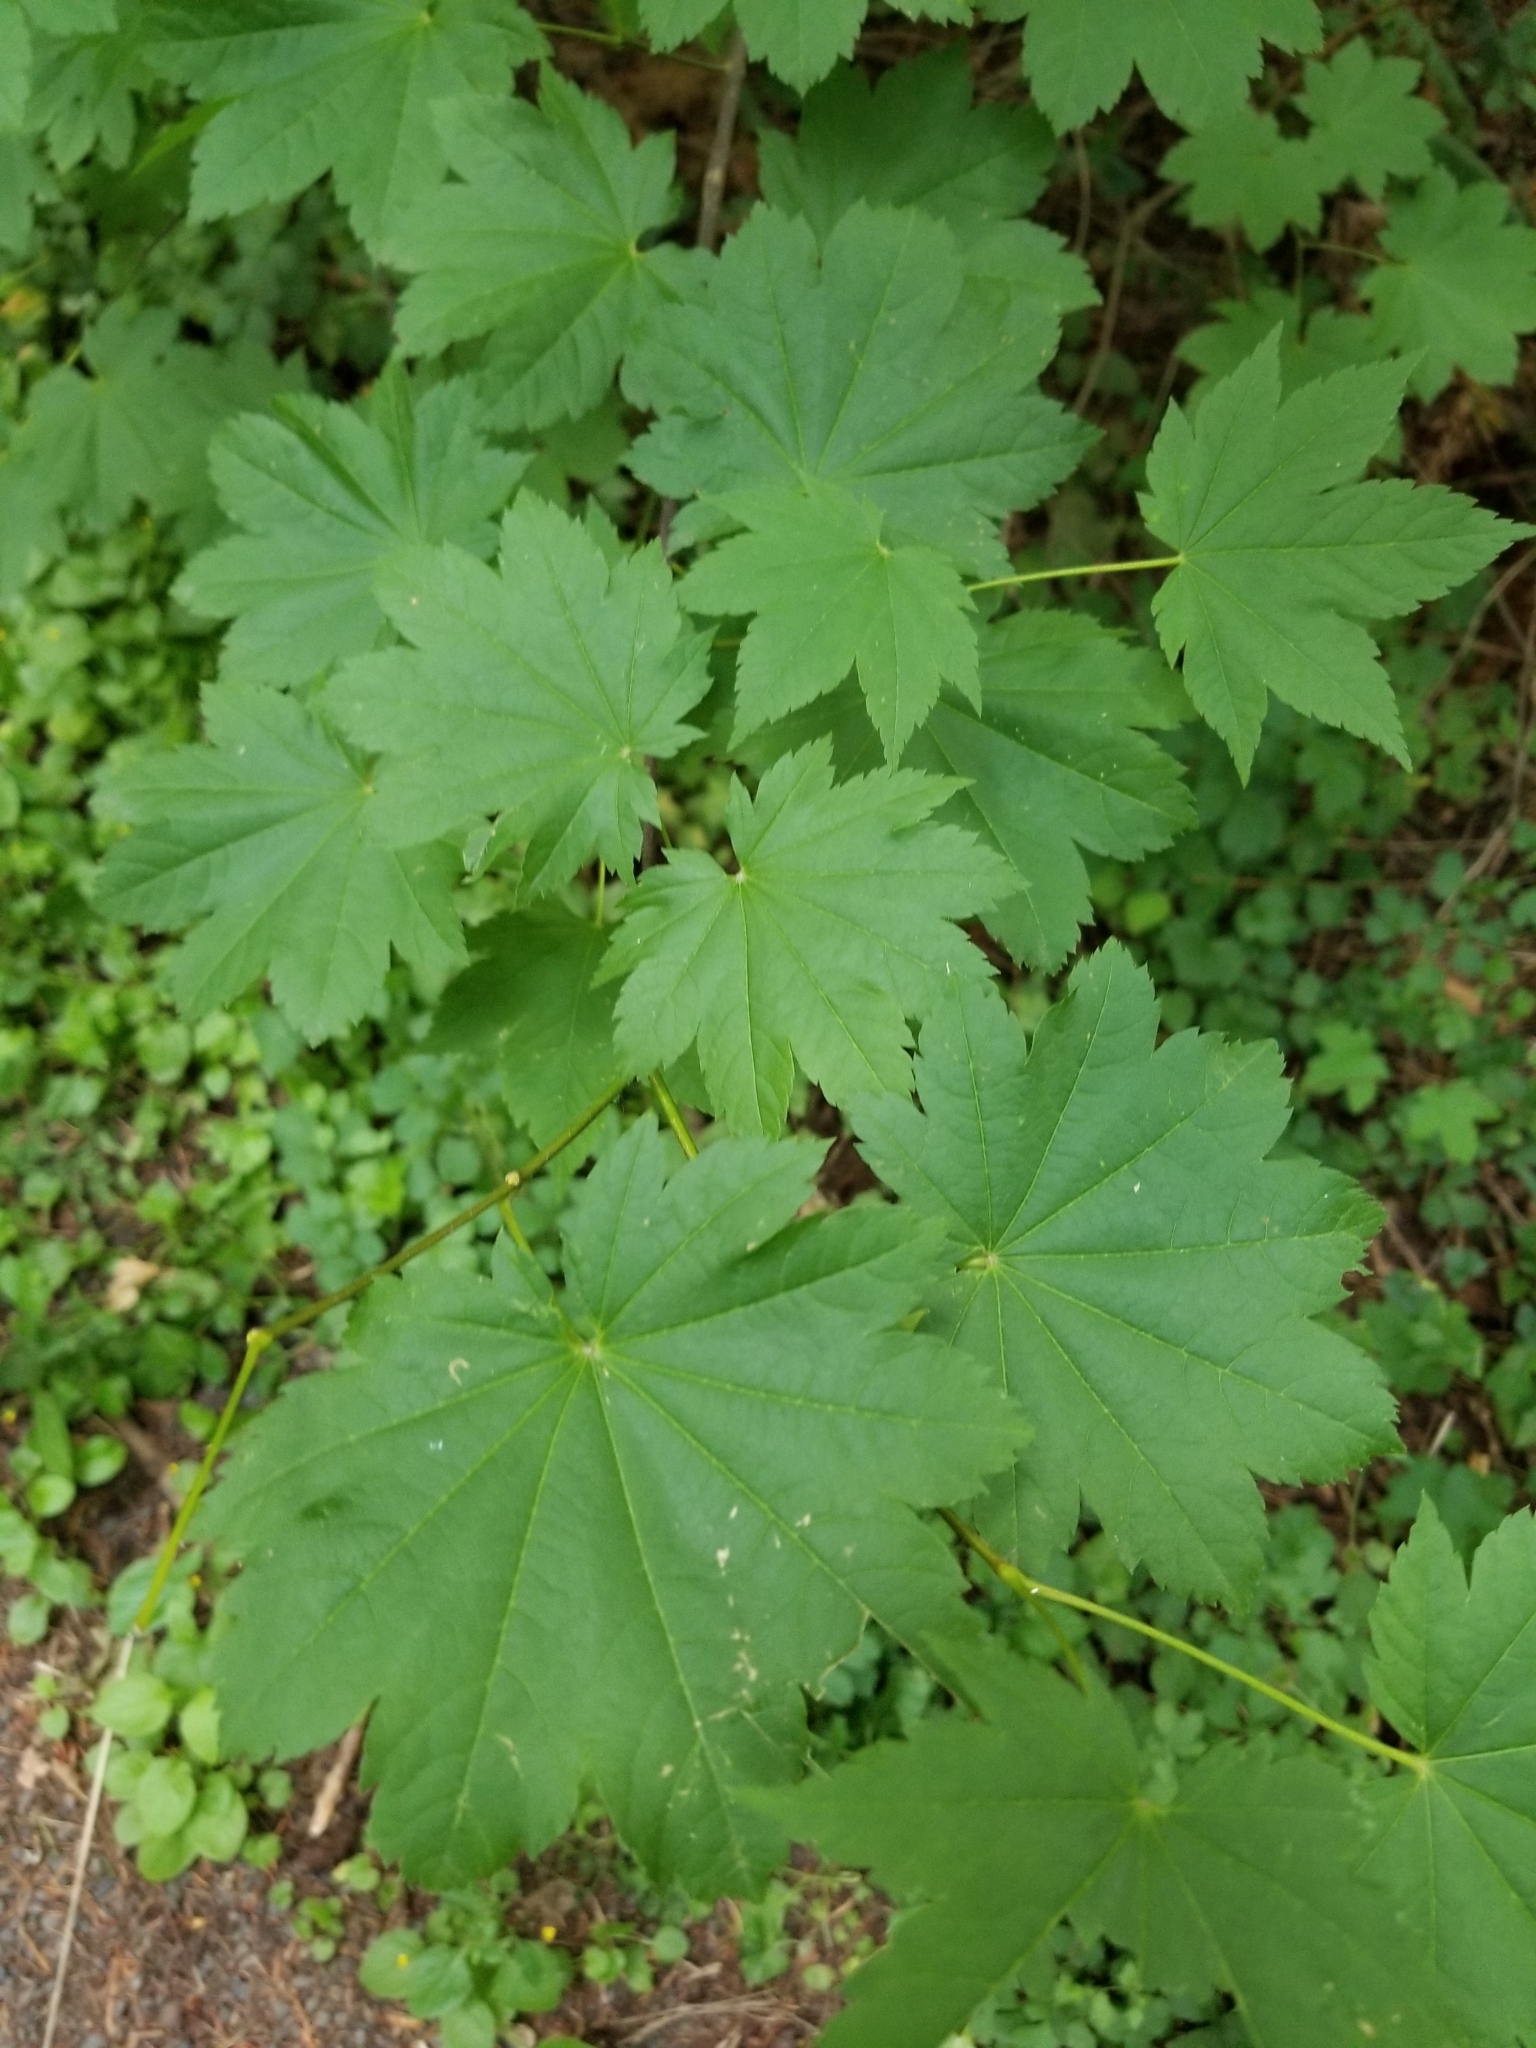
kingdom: Plantae
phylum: Tracheophyta
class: Magnoliopsida
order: Sapindales
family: Sapindaceae
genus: Acer
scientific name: Acer circinatum
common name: Vine maple
